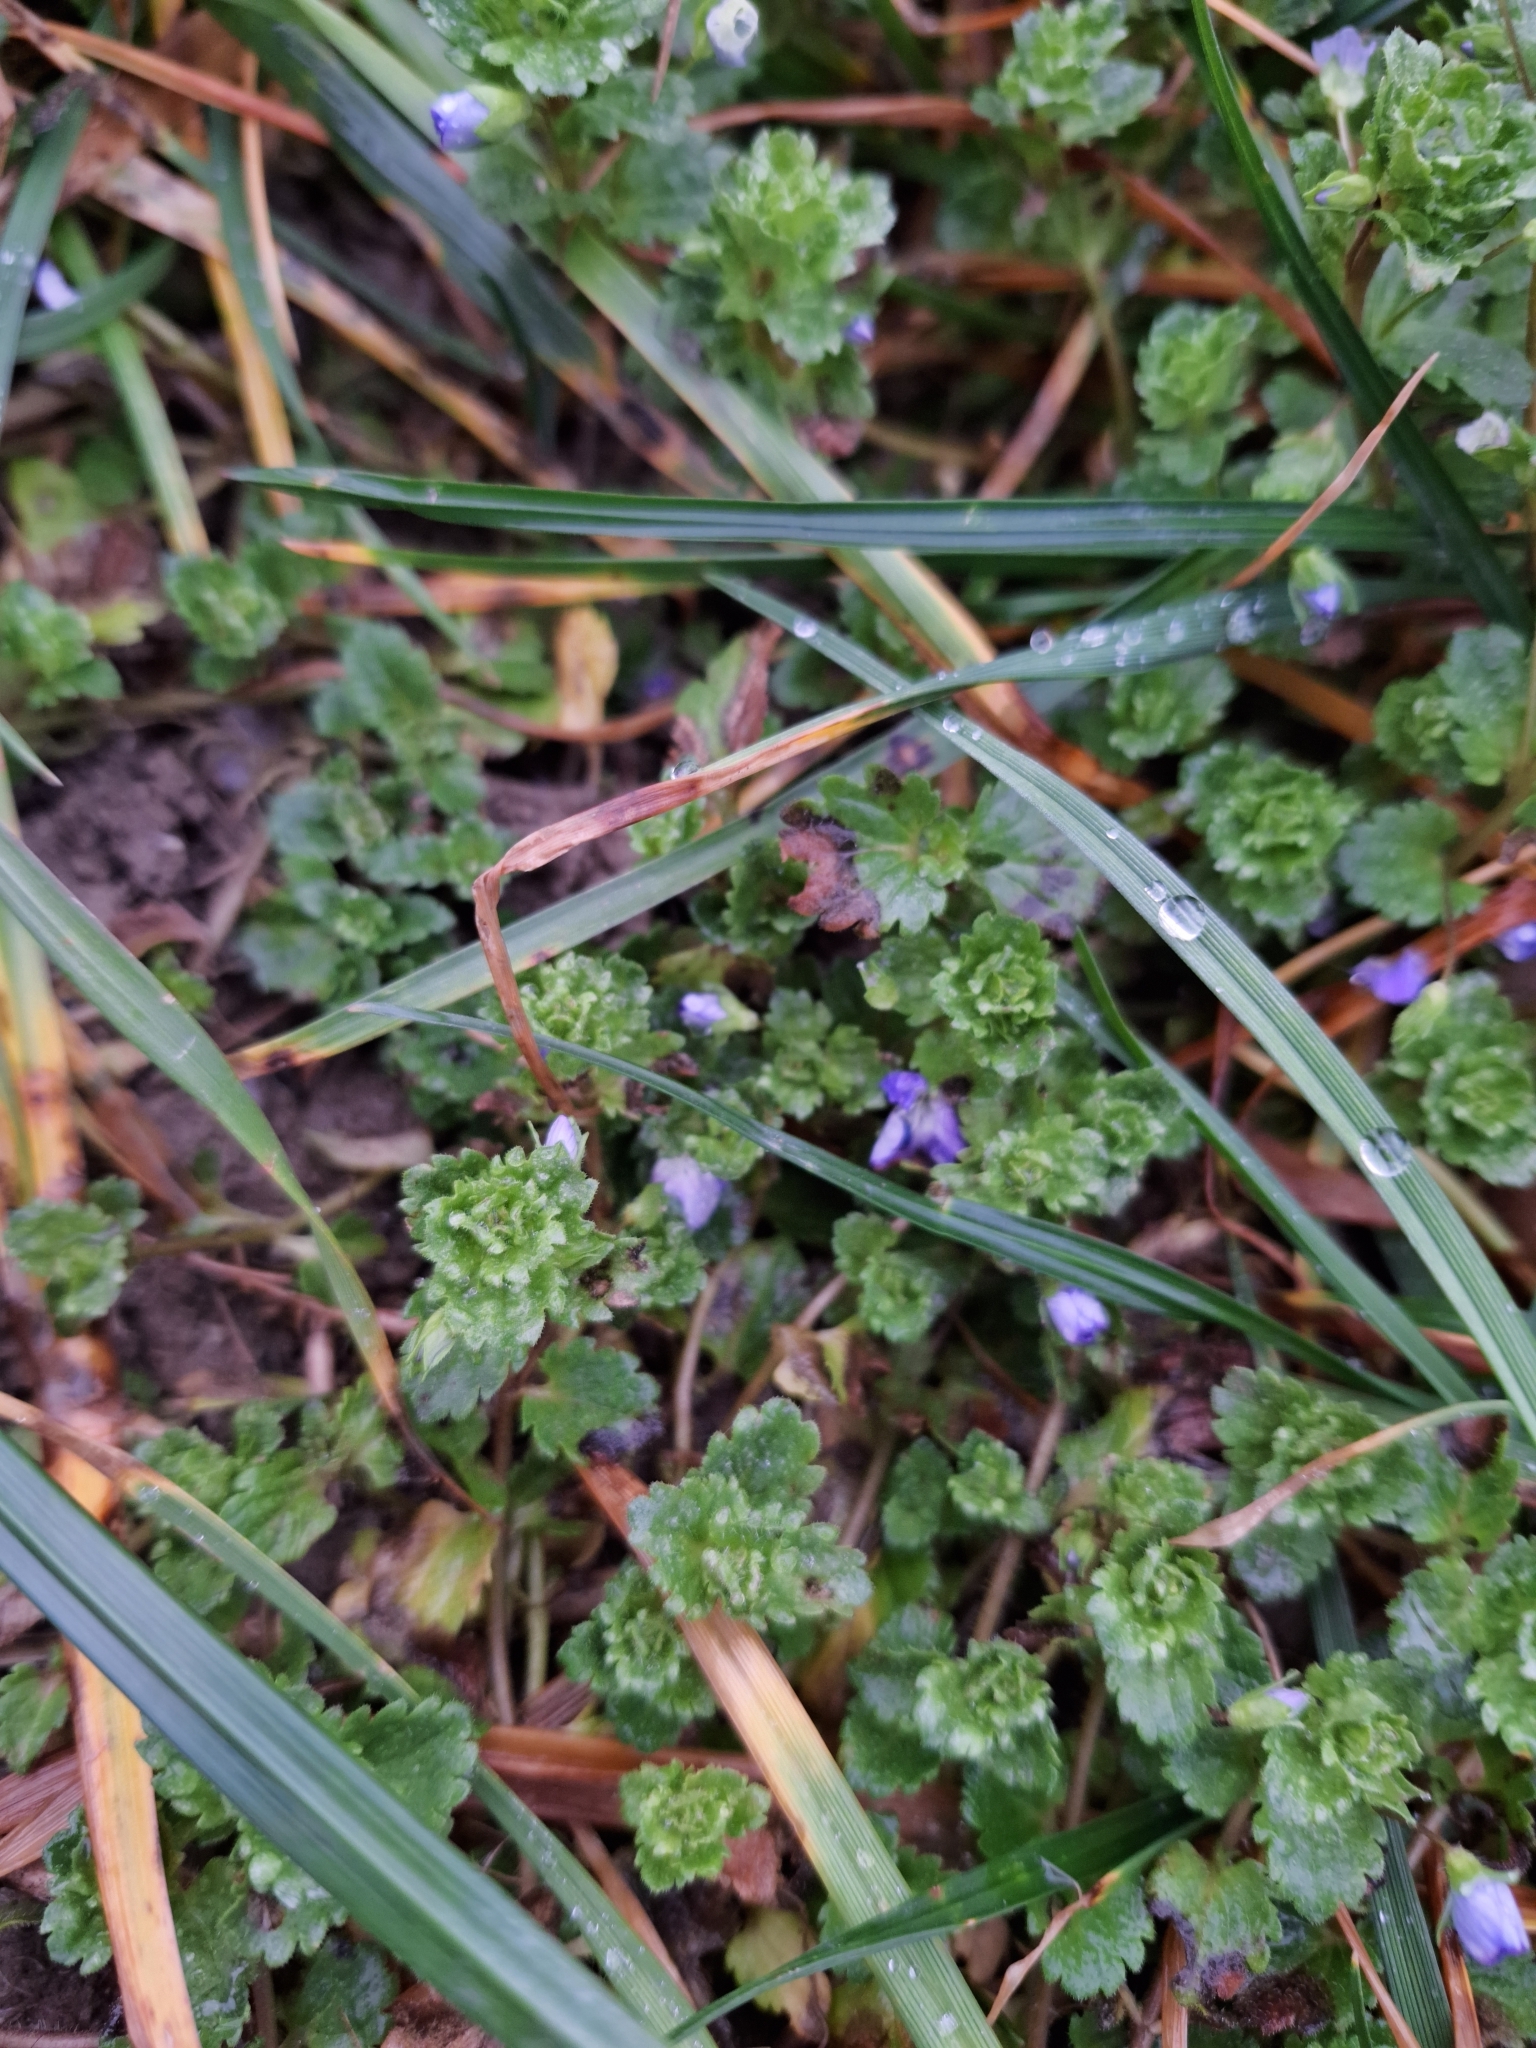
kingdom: Plantae
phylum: Tracheophyta
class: Magnoliopsida
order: Lamiales
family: Plantaginaceae
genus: Veronica
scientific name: Veronica persica
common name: Common field-speedwell
